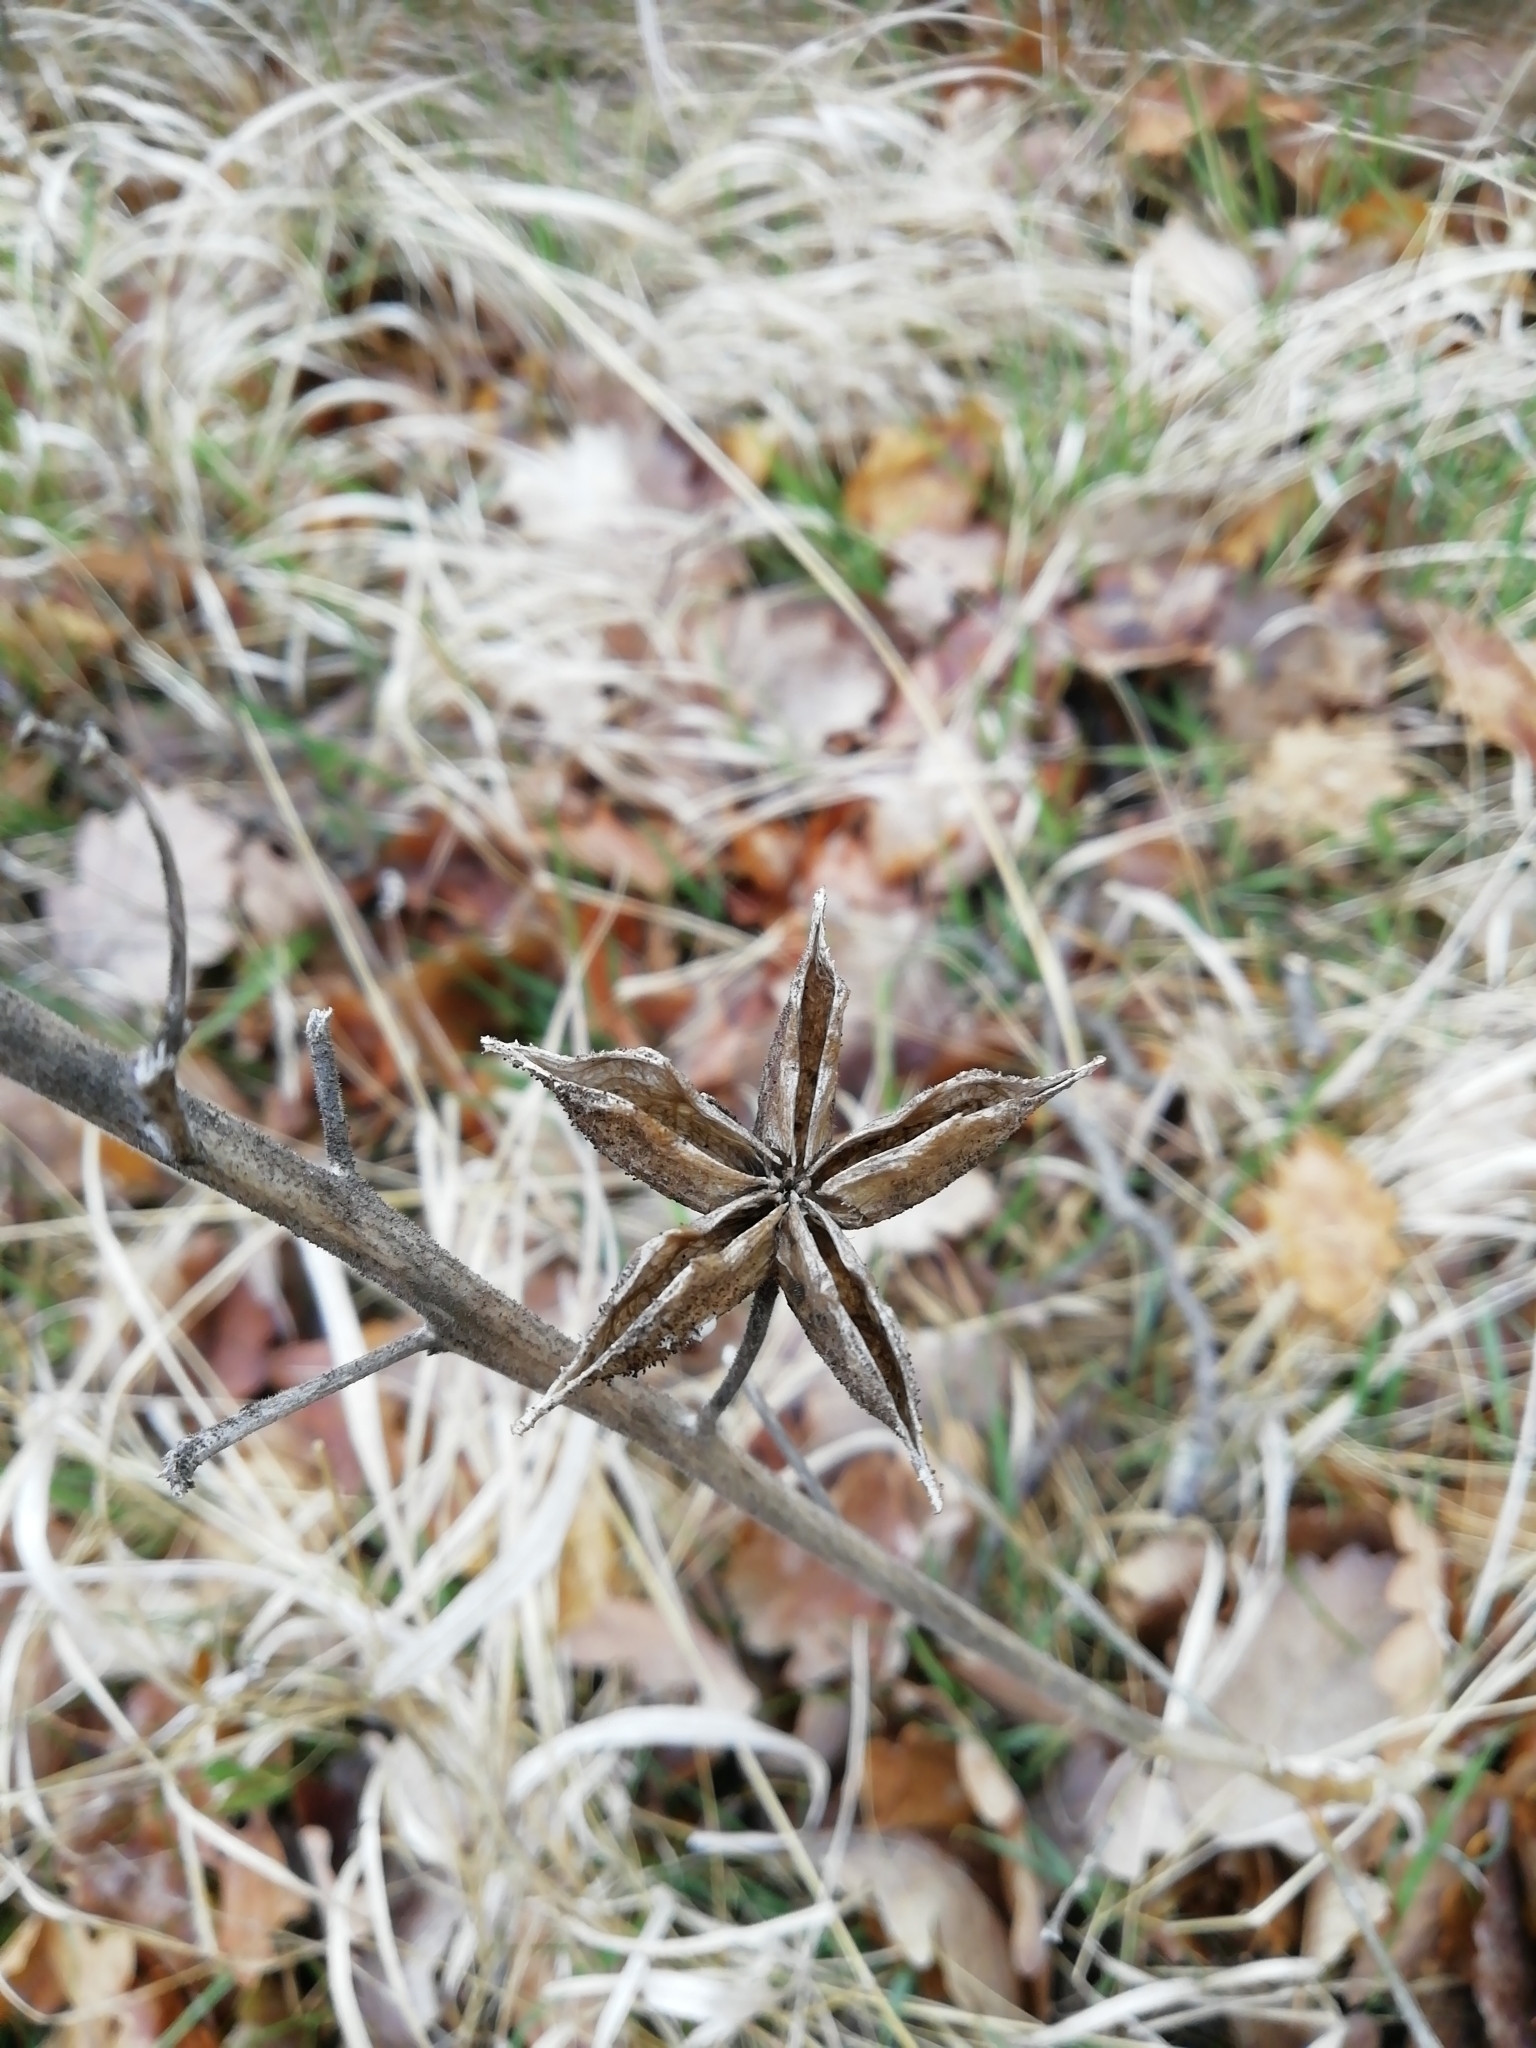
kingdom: Plantae
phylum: Tracheophyta
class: Magnoliopsida
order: Sapindales
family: Rutaceae
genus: Dictamnus
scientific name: Dictamnus albus
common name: Gasplant
